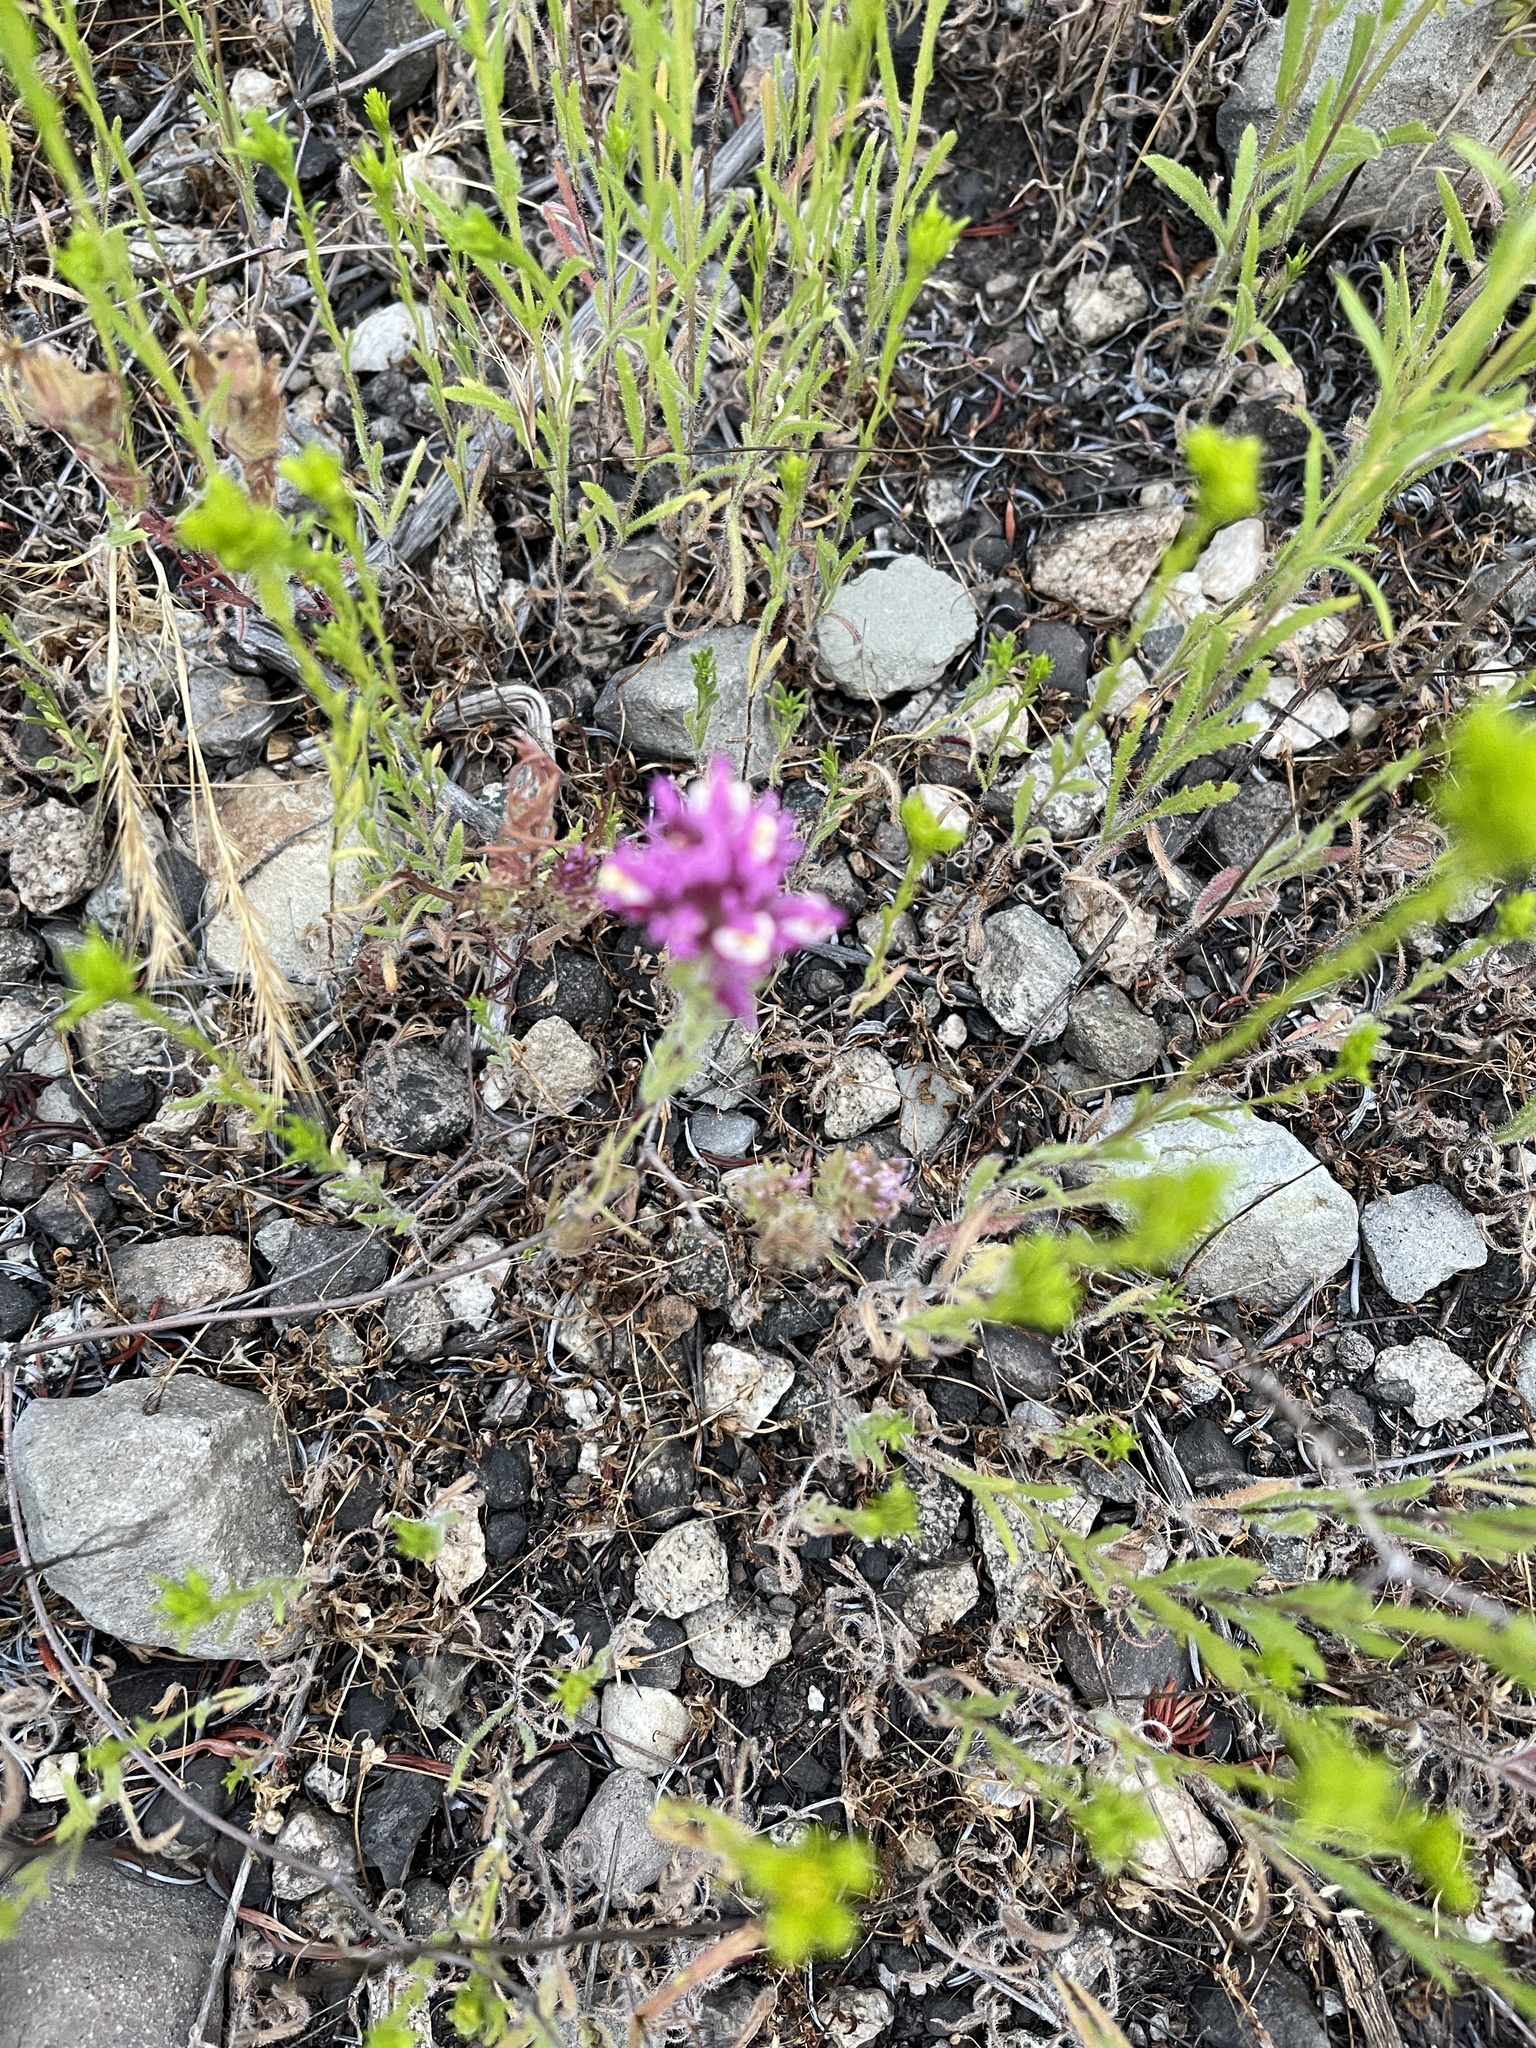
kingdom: Plantae
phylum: Tracheophyta
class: Magnoliopsida
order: Lamiales
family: Orobanchaceae
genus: Castilleja
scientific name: Castilleja exserta
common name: Purple owl-clover
